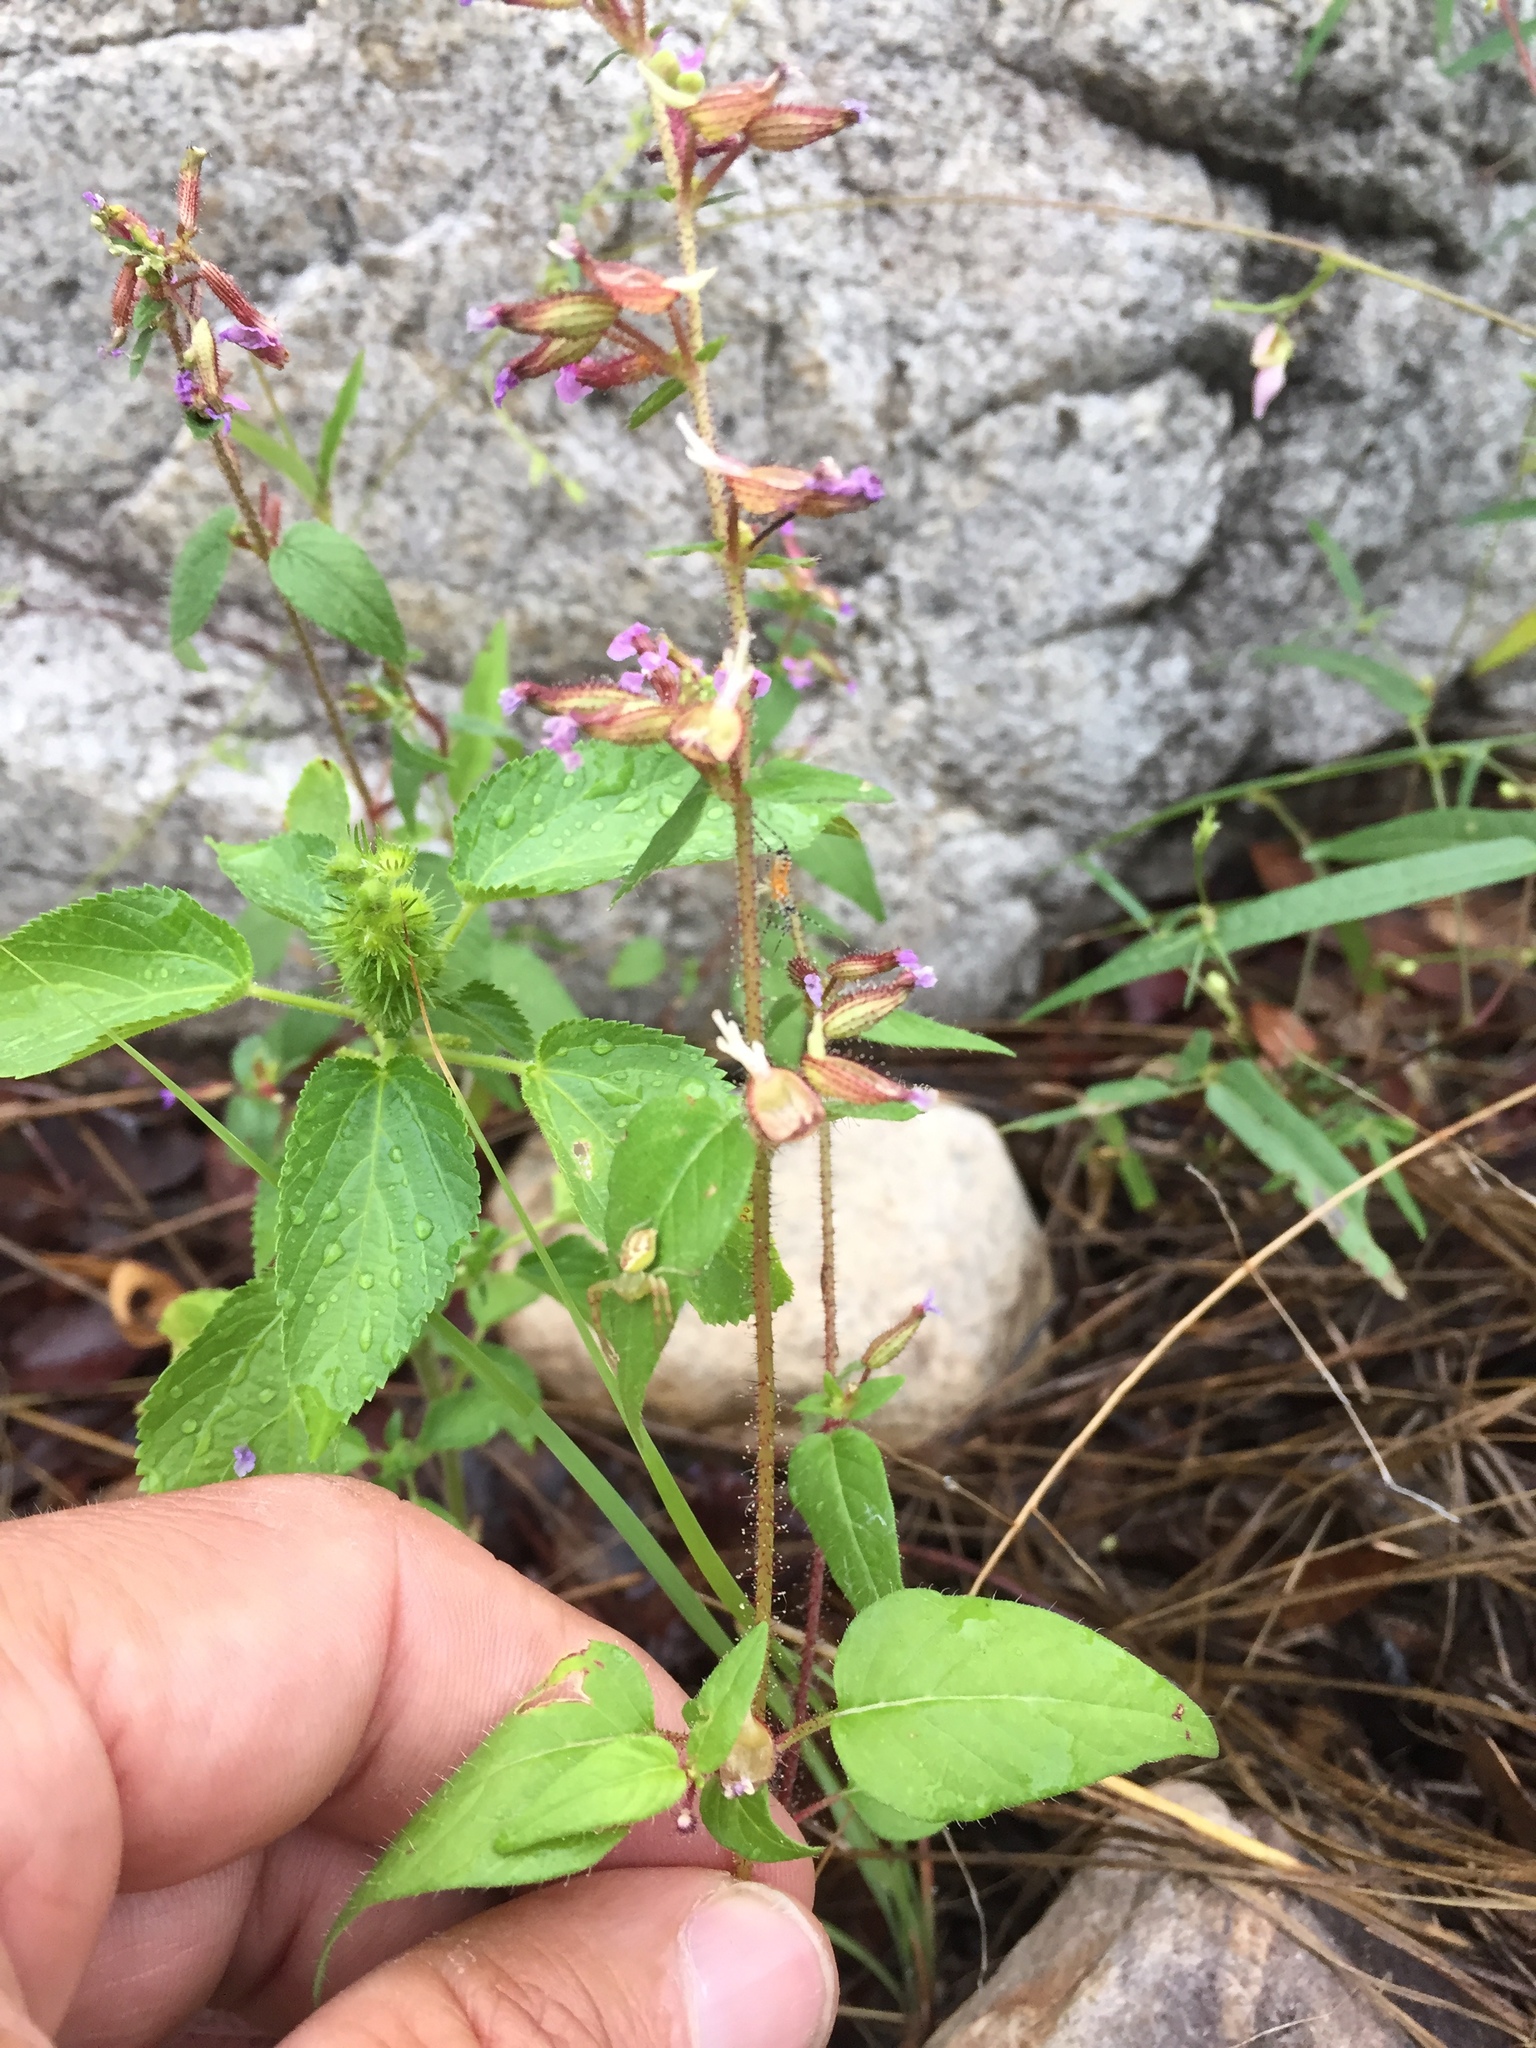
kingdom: Plantae
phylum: Tracheophyta
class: Magnoliopsida
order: Myrtales
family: Lythraceae
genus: Cuphea
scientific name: Cuphea wrightii
